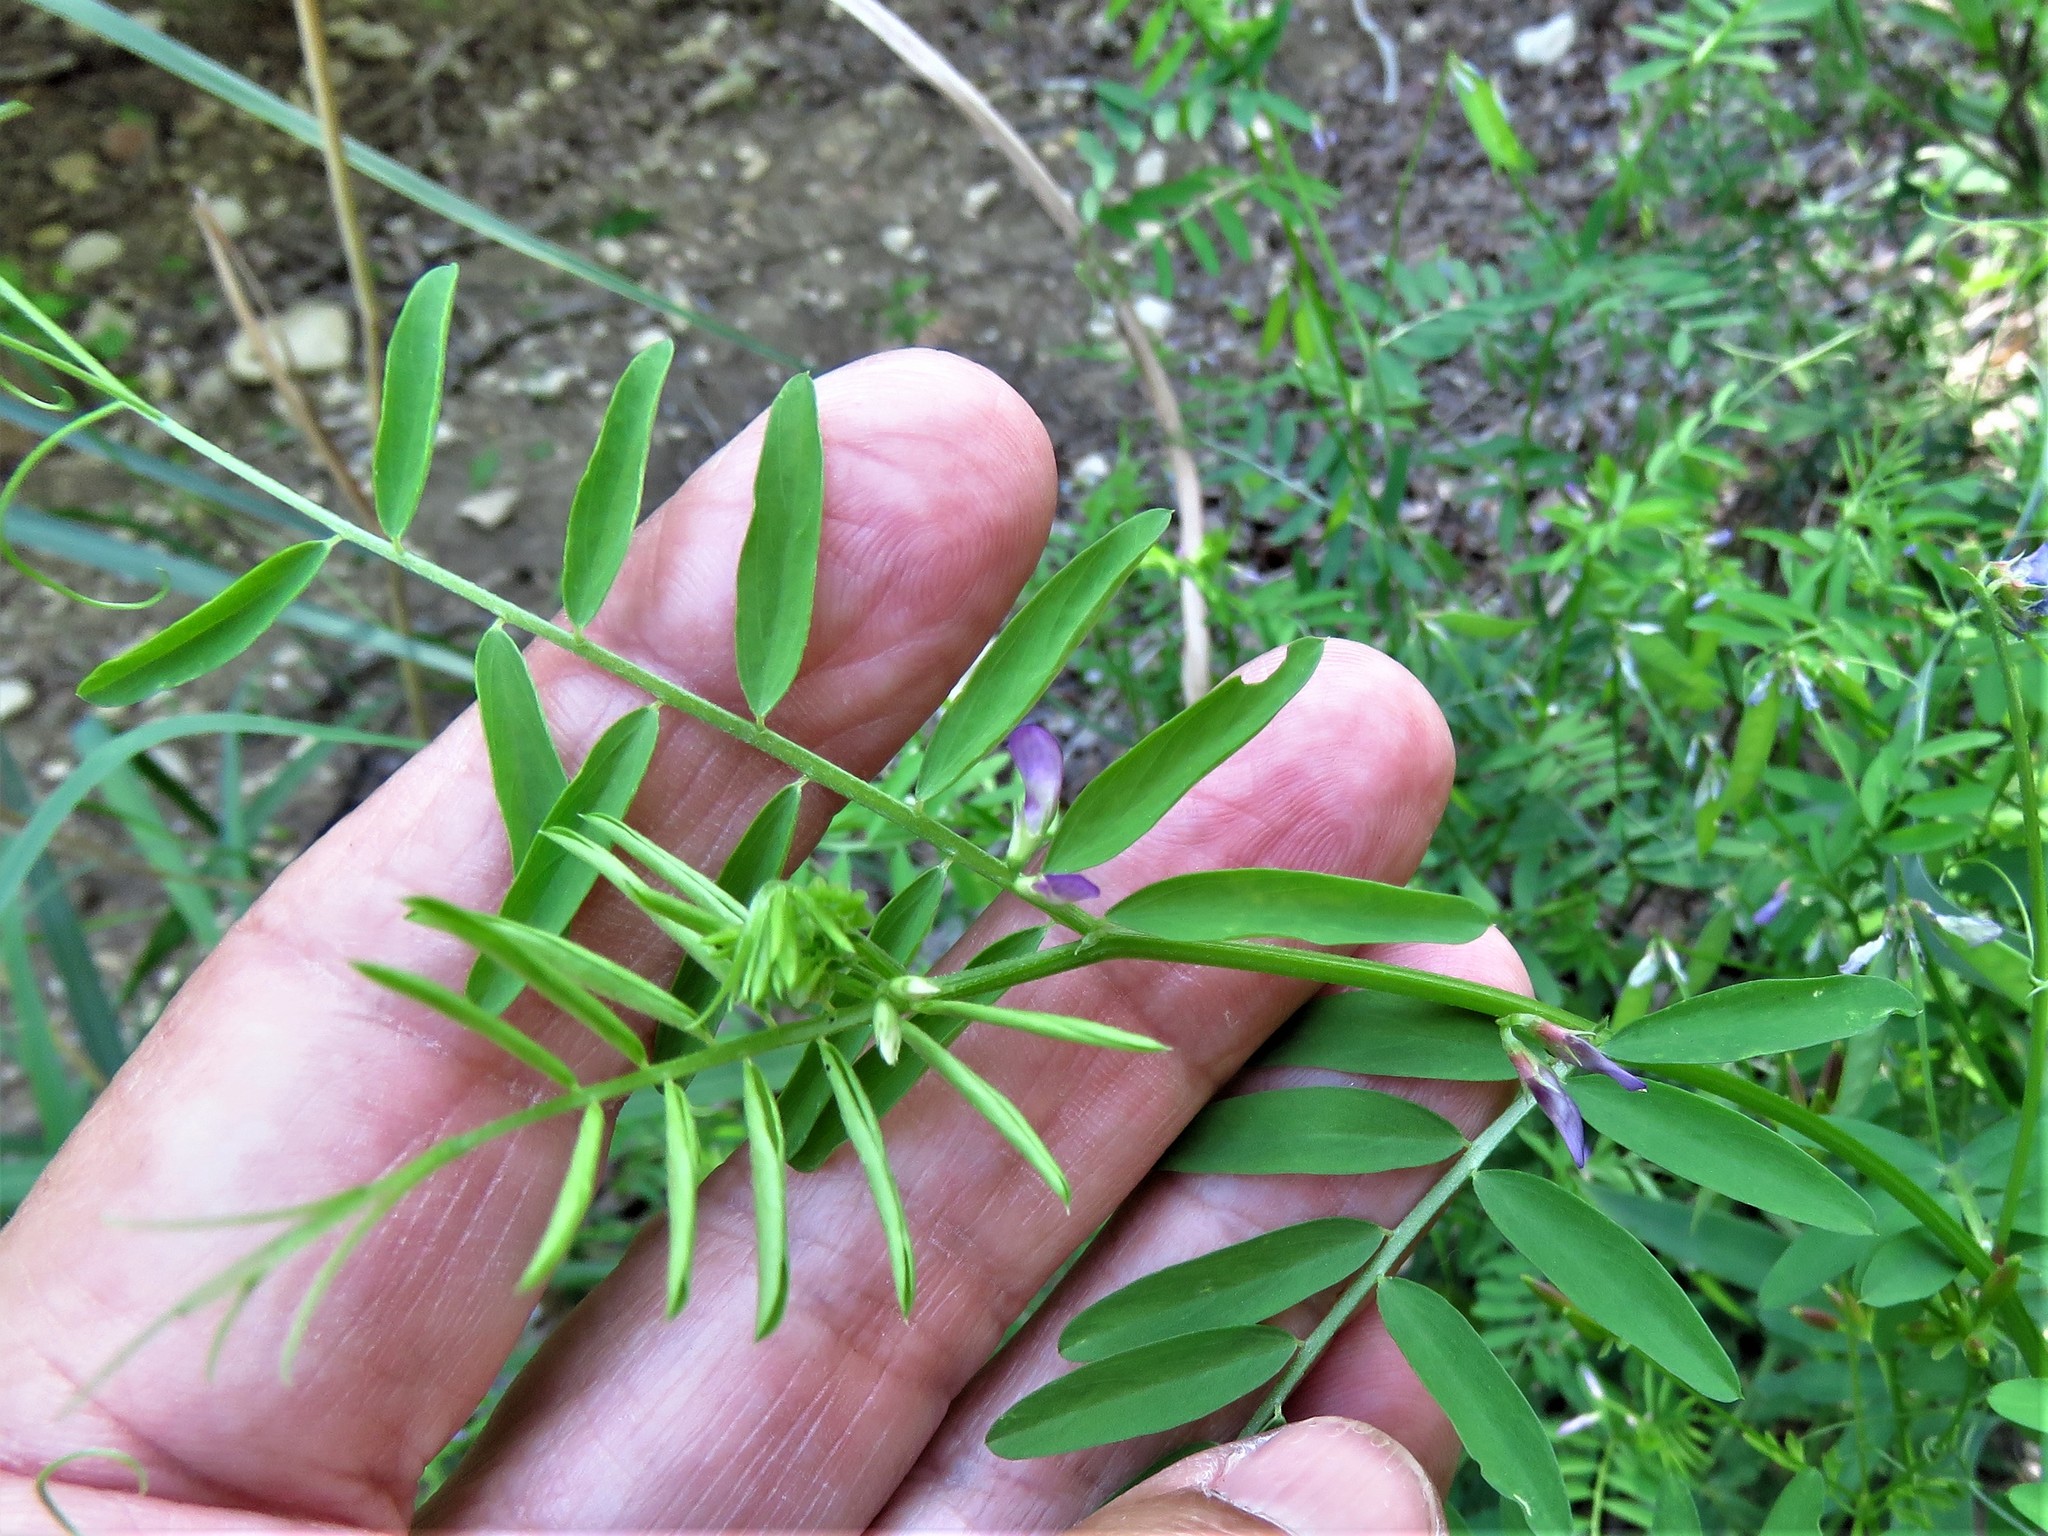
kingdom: Plantae
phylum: Tracheophyta
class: Magnoliopsida
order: Fabales
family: Fabaceae
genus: Vicia
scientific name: Vicia sativa
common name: Garden vetch
